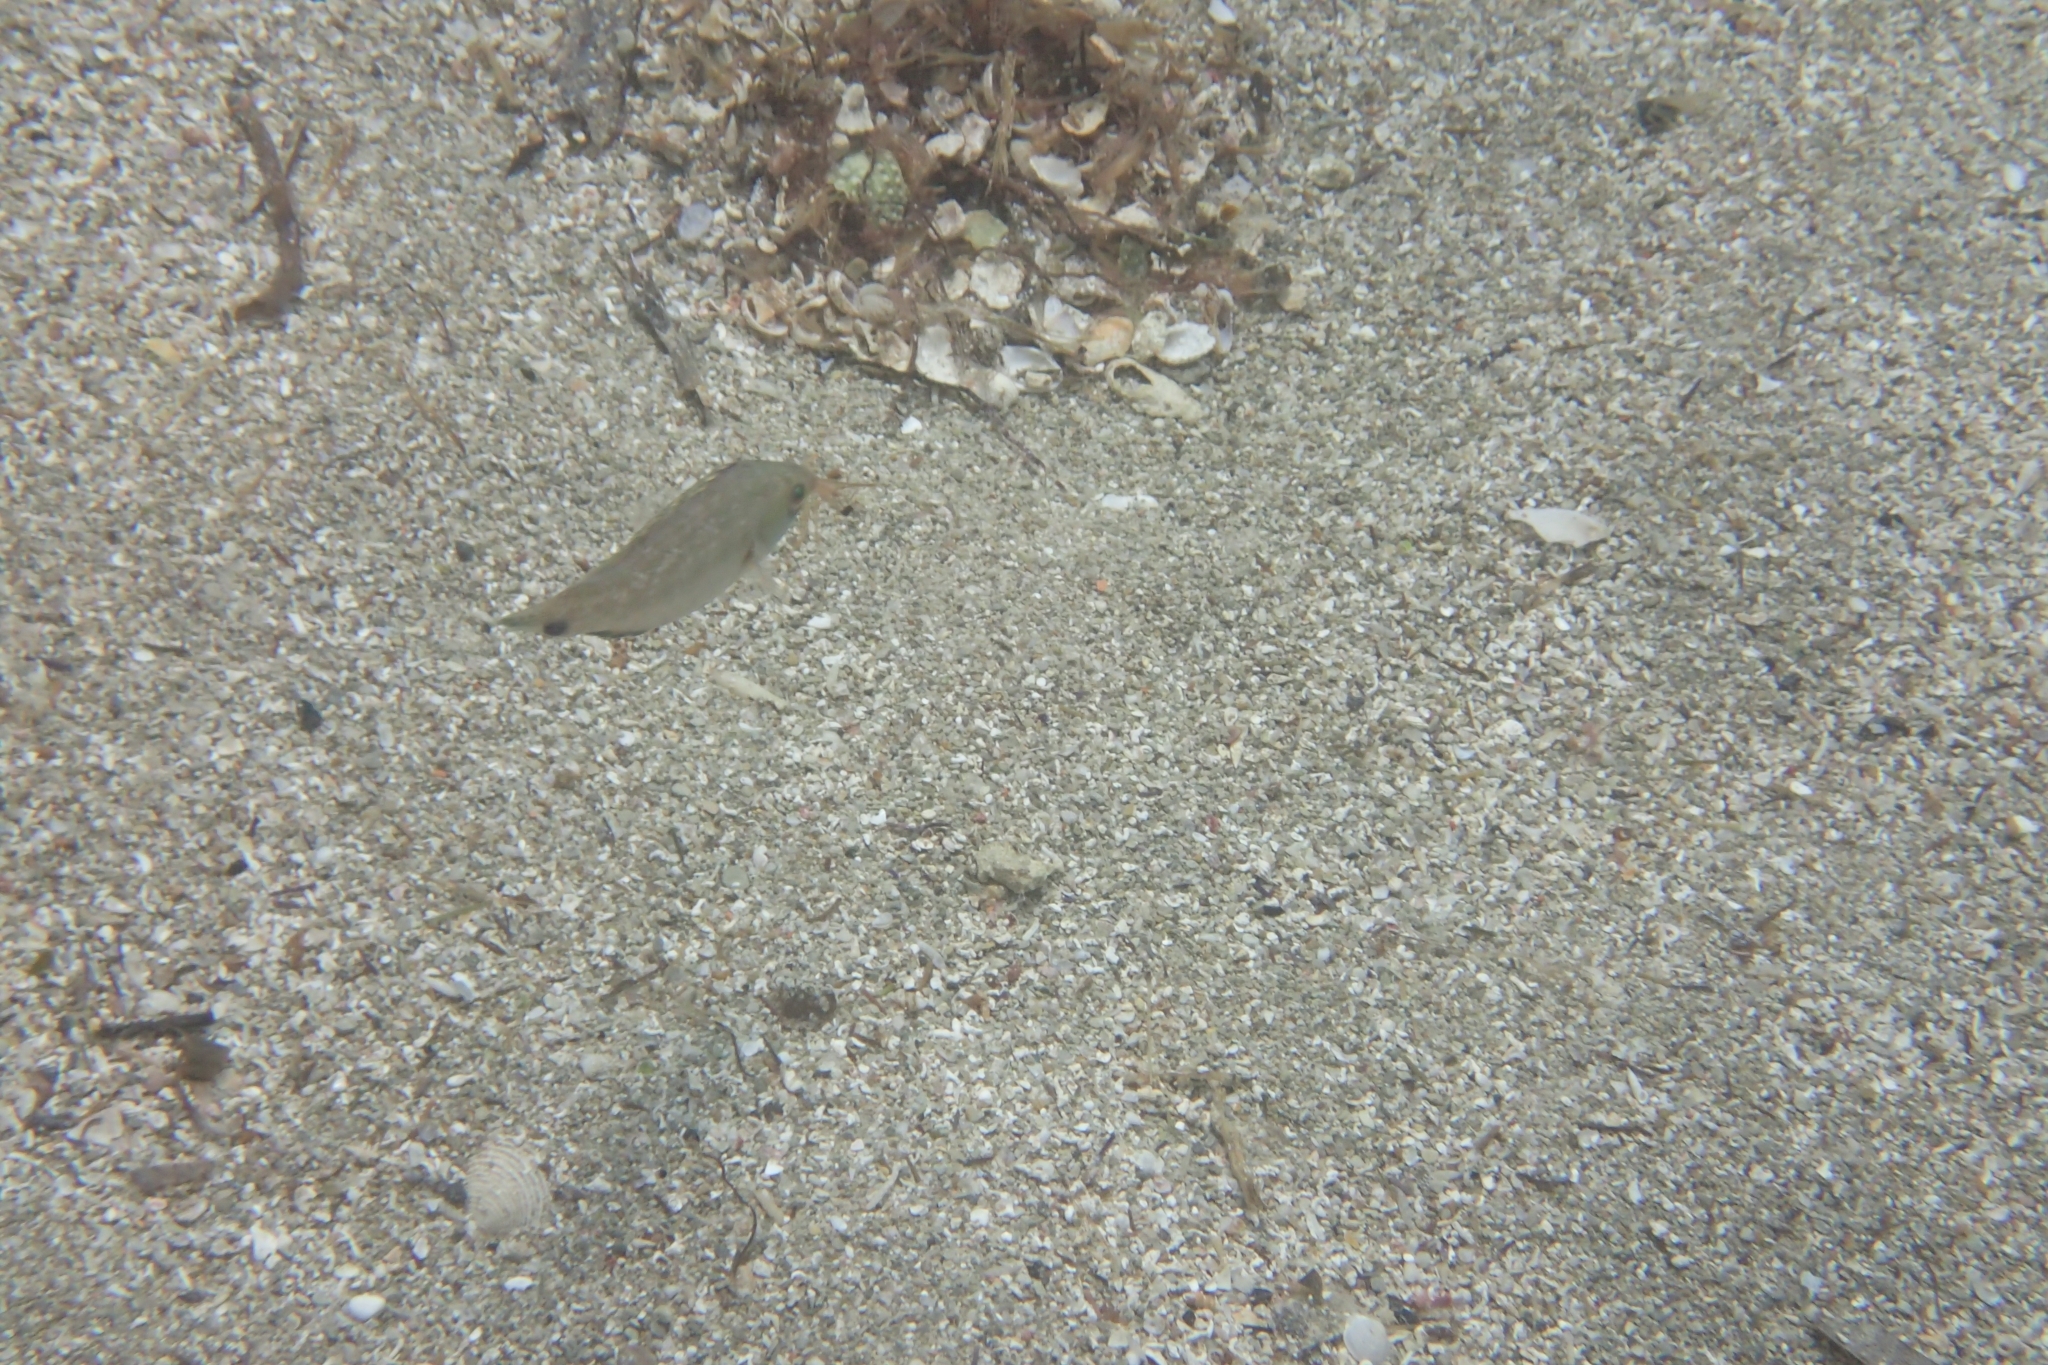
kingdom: Animalia
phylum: Chordata
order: Perciformes
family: Labridae
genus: Symphodus
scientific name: Symphodus cinereus
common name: Grey wrasse
